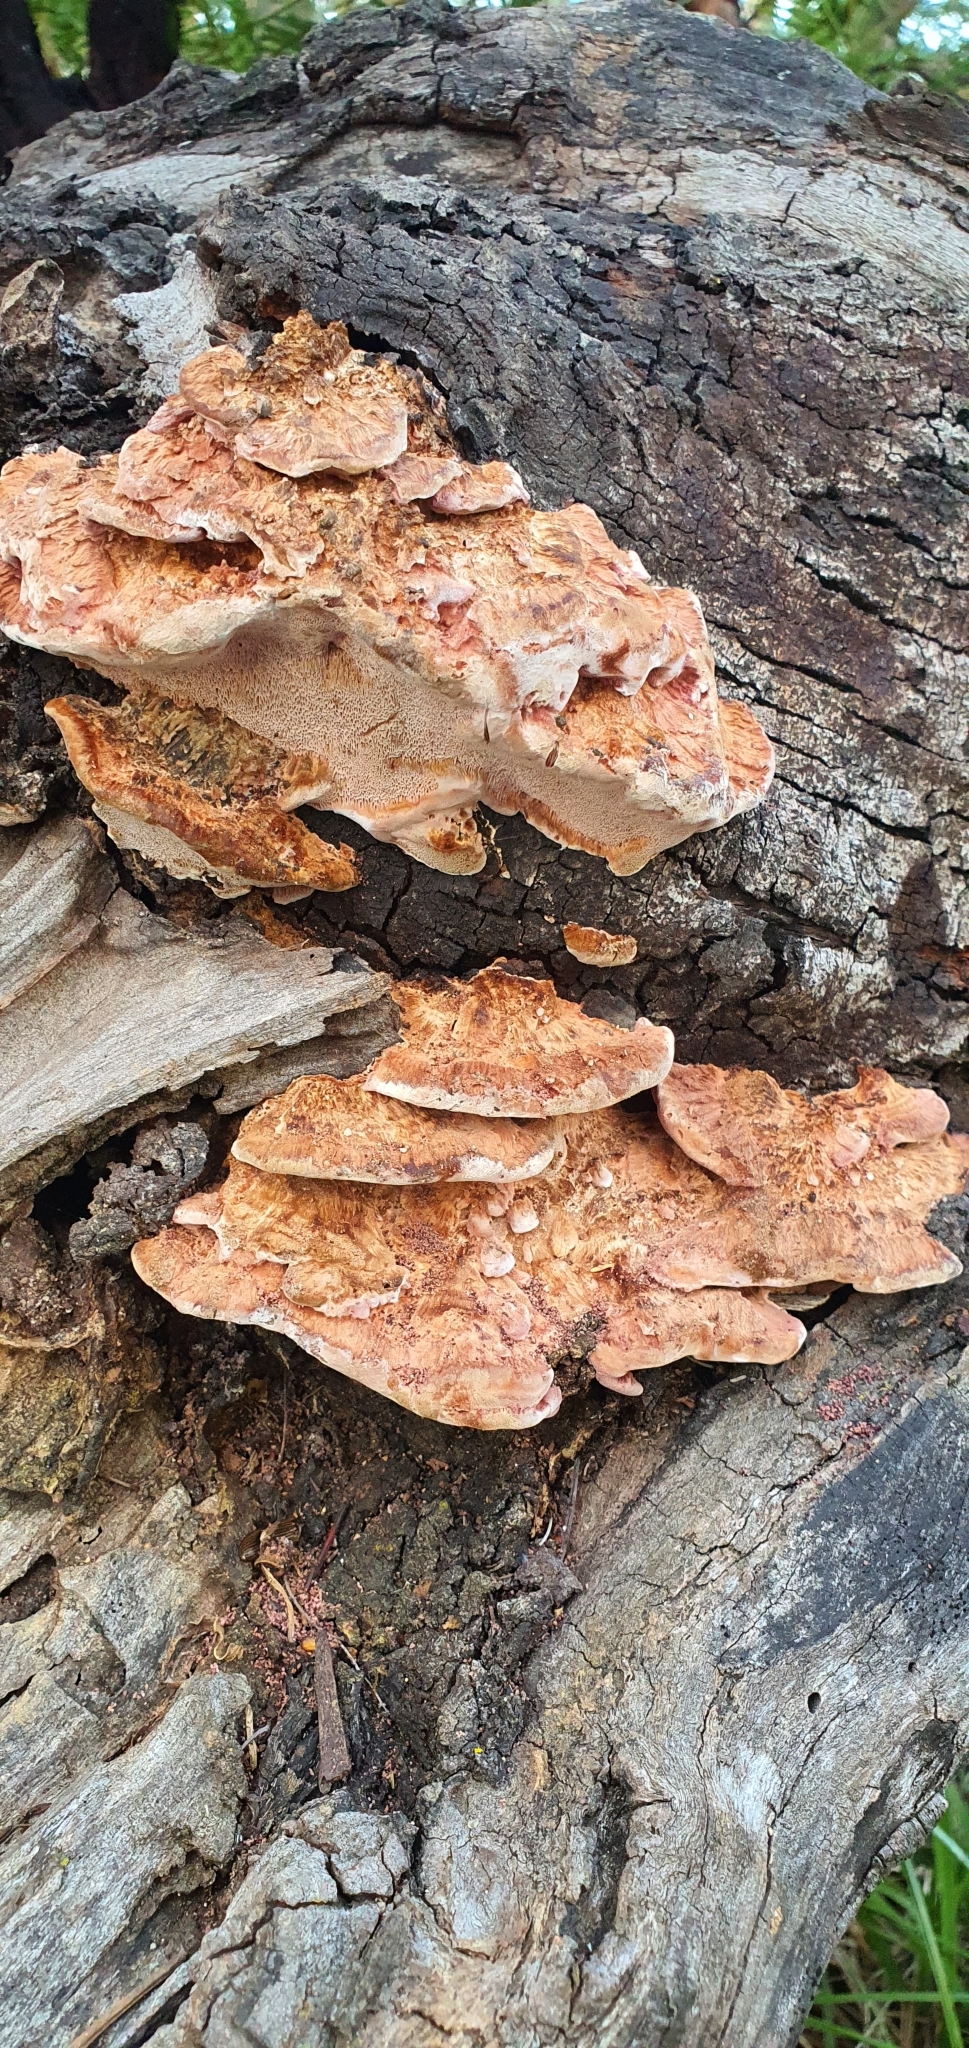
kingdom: Fungi
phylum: Basidiomycota
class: Agaricomycetes
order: Polyporales
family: Fomitopsidaceae
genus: Rhodofomitopsis
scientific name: Rhodofomitopsis lilacinogilva
